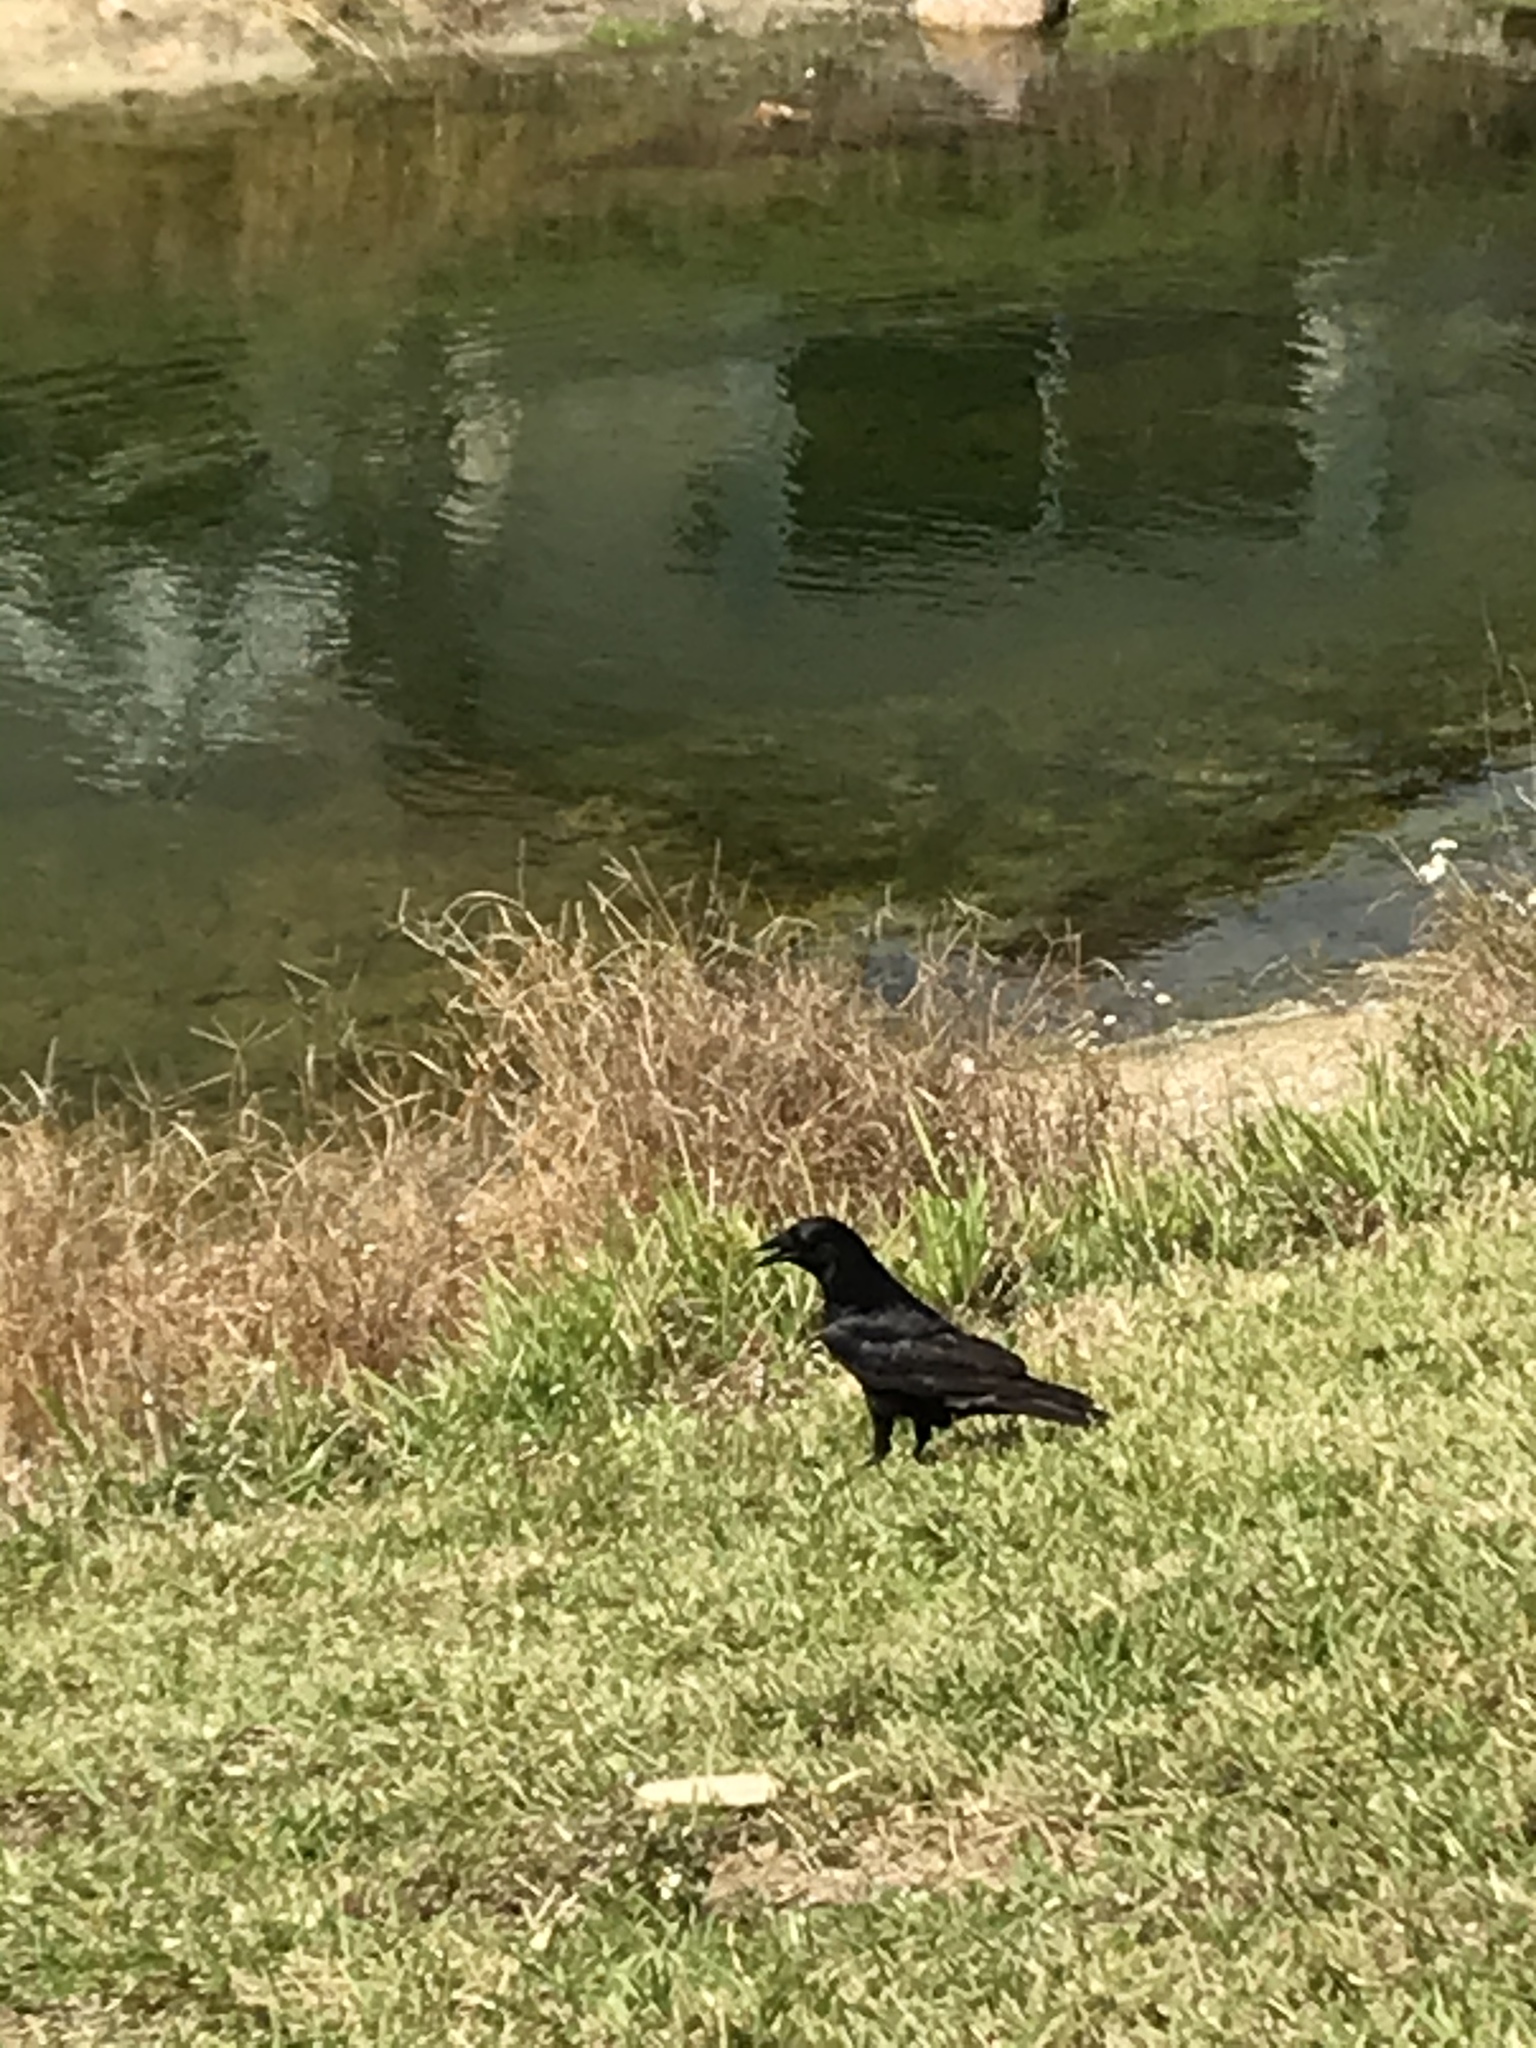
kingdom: Animalia
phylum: Chordata
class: Aves
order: Passeriformes
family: Corvidae
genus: Corvus
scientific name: Corvus
